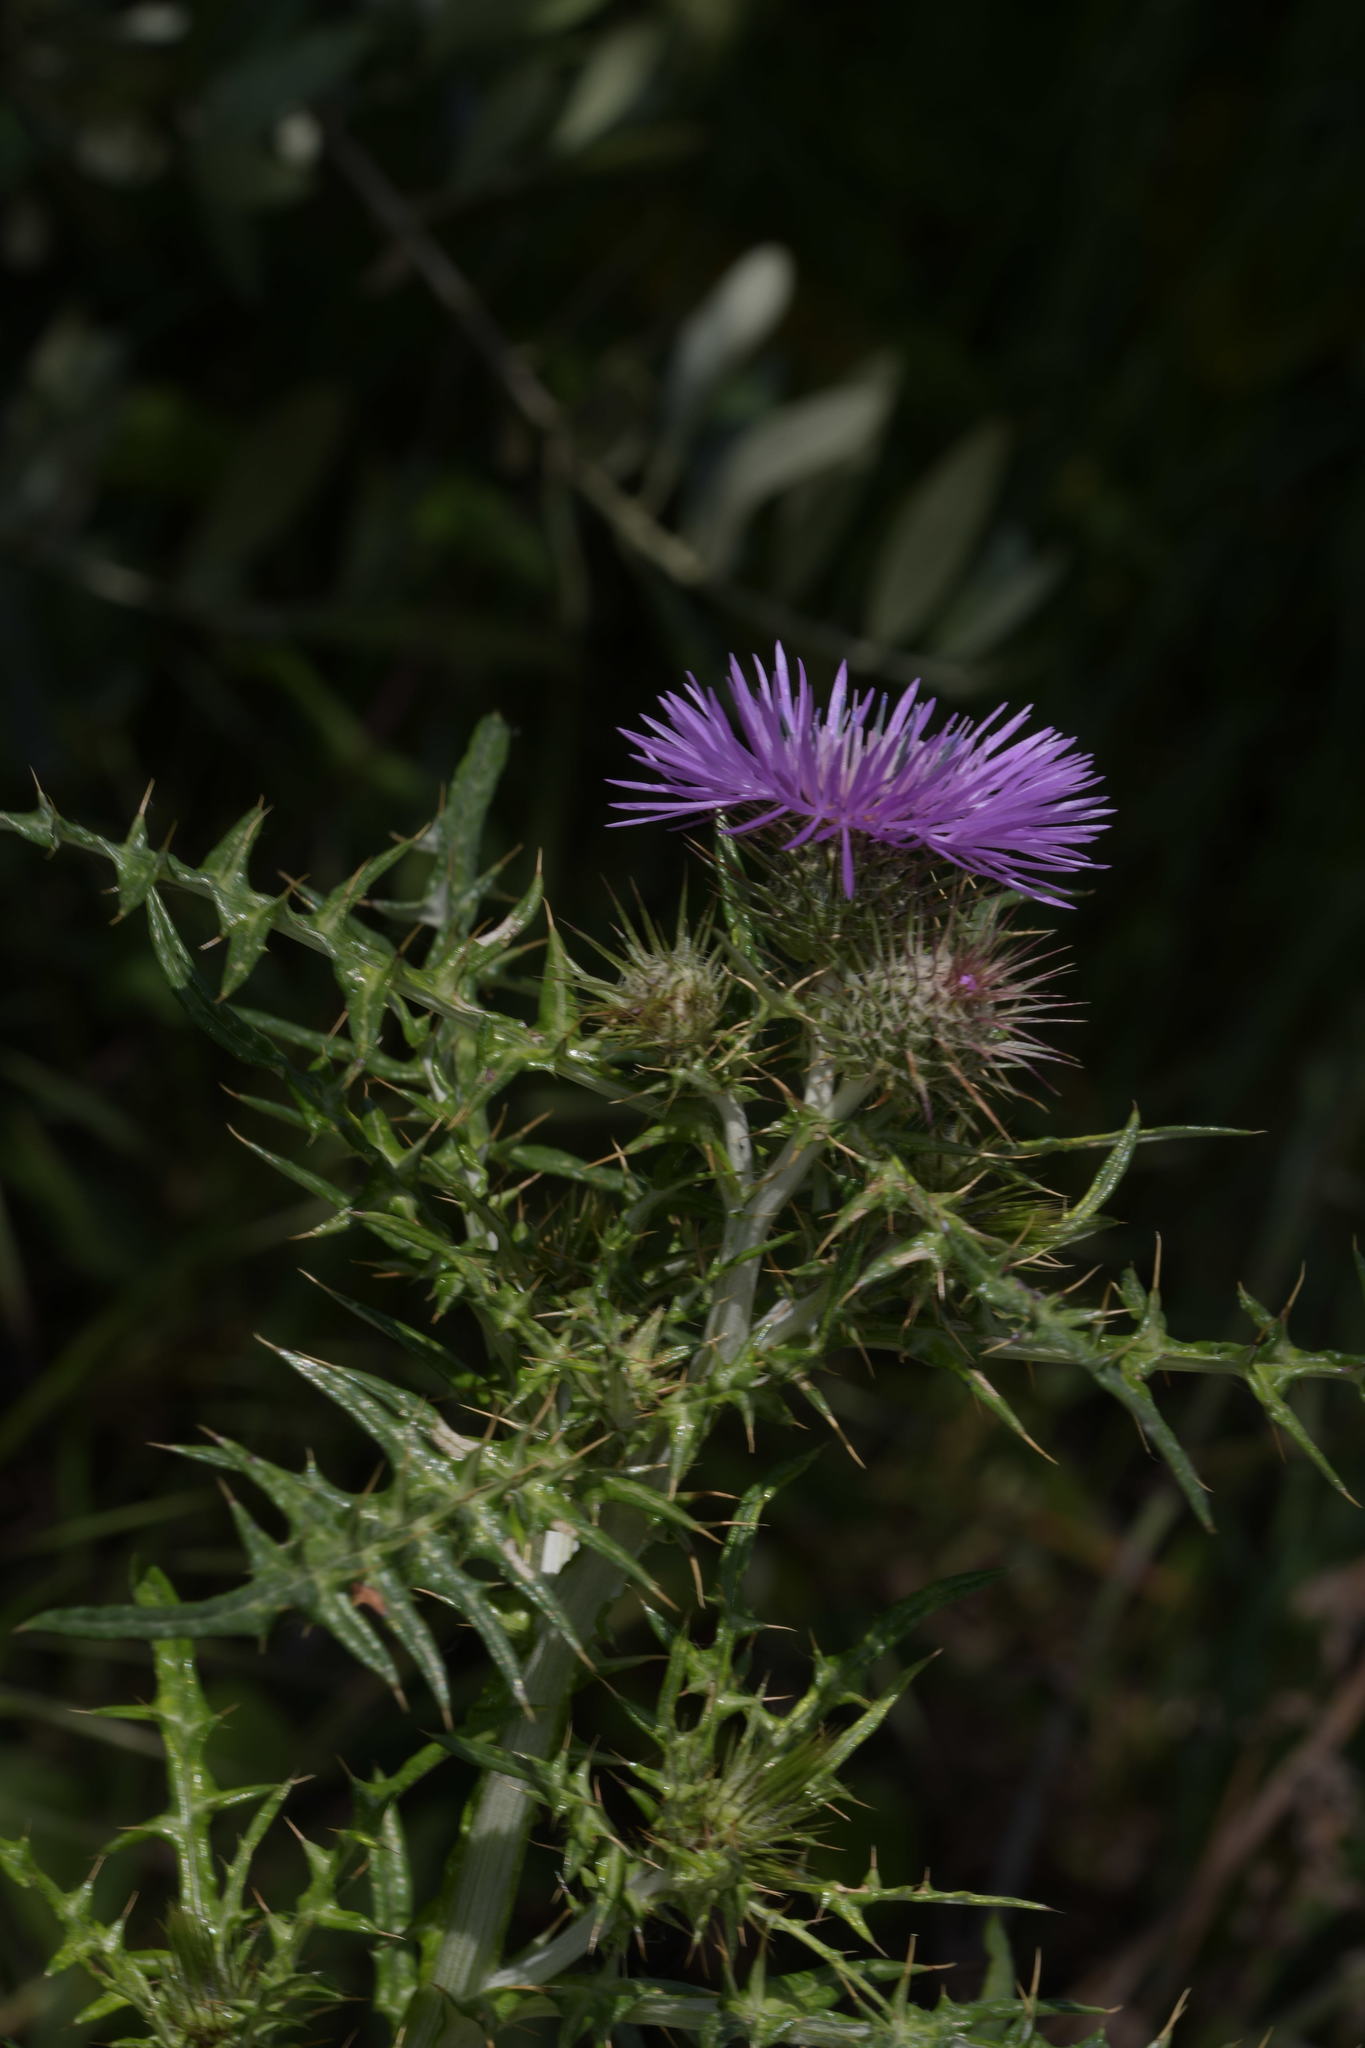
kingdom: Plantae
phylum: Tracheophyta
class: Magnoliopsida
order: Asterales
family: Asteraceae
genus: Galactites
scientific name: Galactites tomentosa
